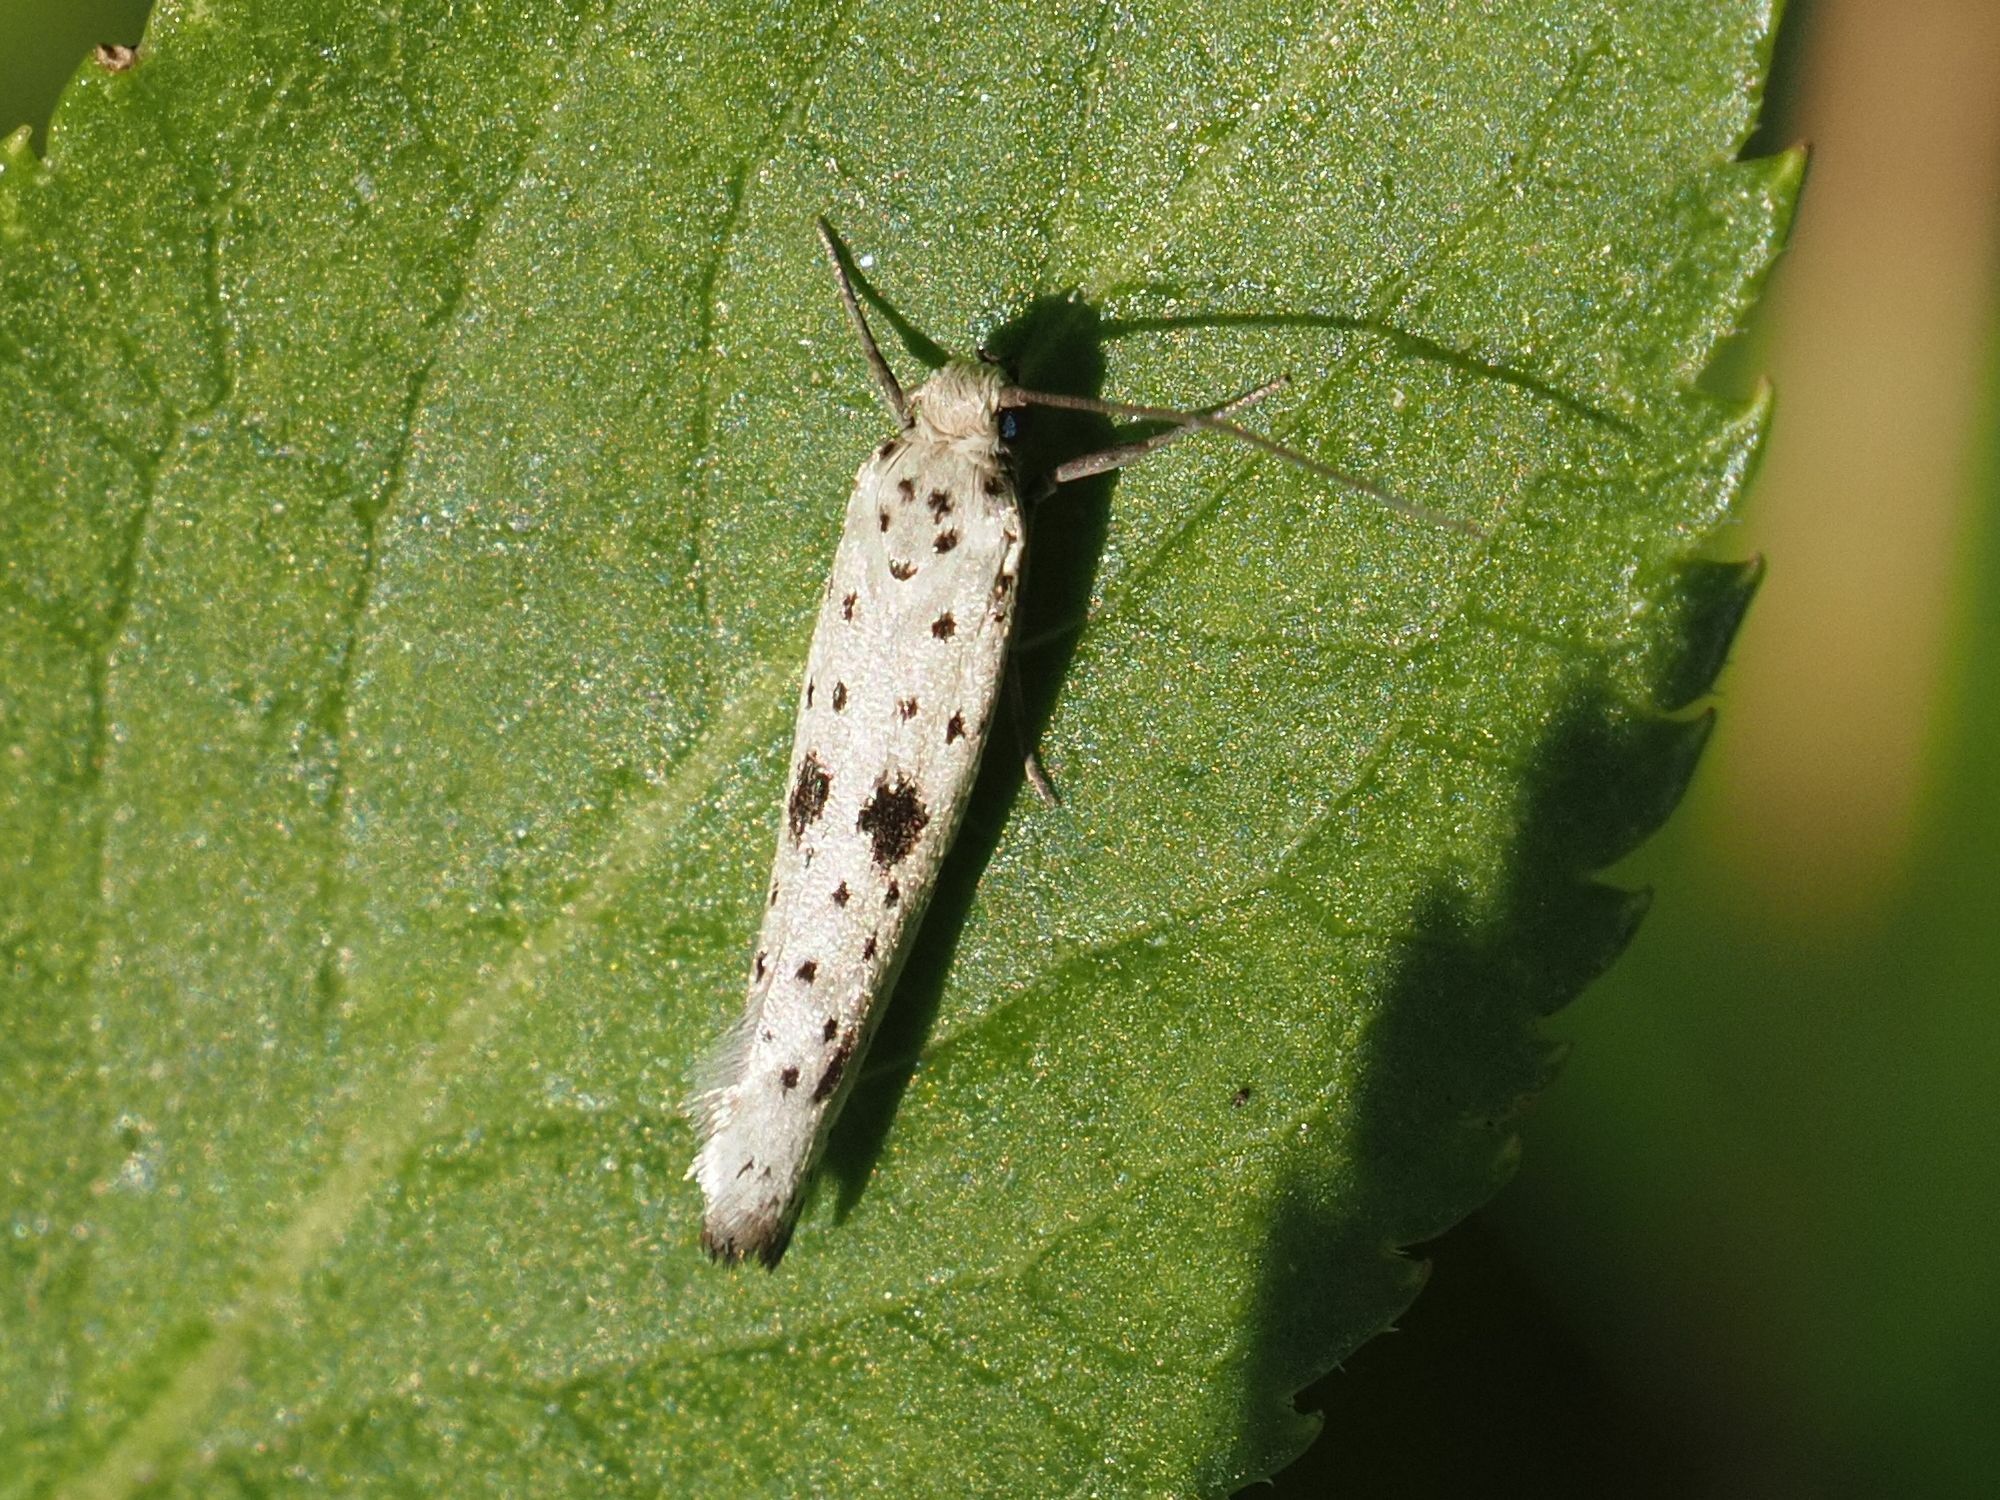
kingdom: Animalia
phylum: Arthropoda
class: Insecta
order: Lepidoptera
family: Yponomeutidae
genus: Yponomeuta
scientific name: Yponomeuta plumbella
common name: Black-tipped ermine
